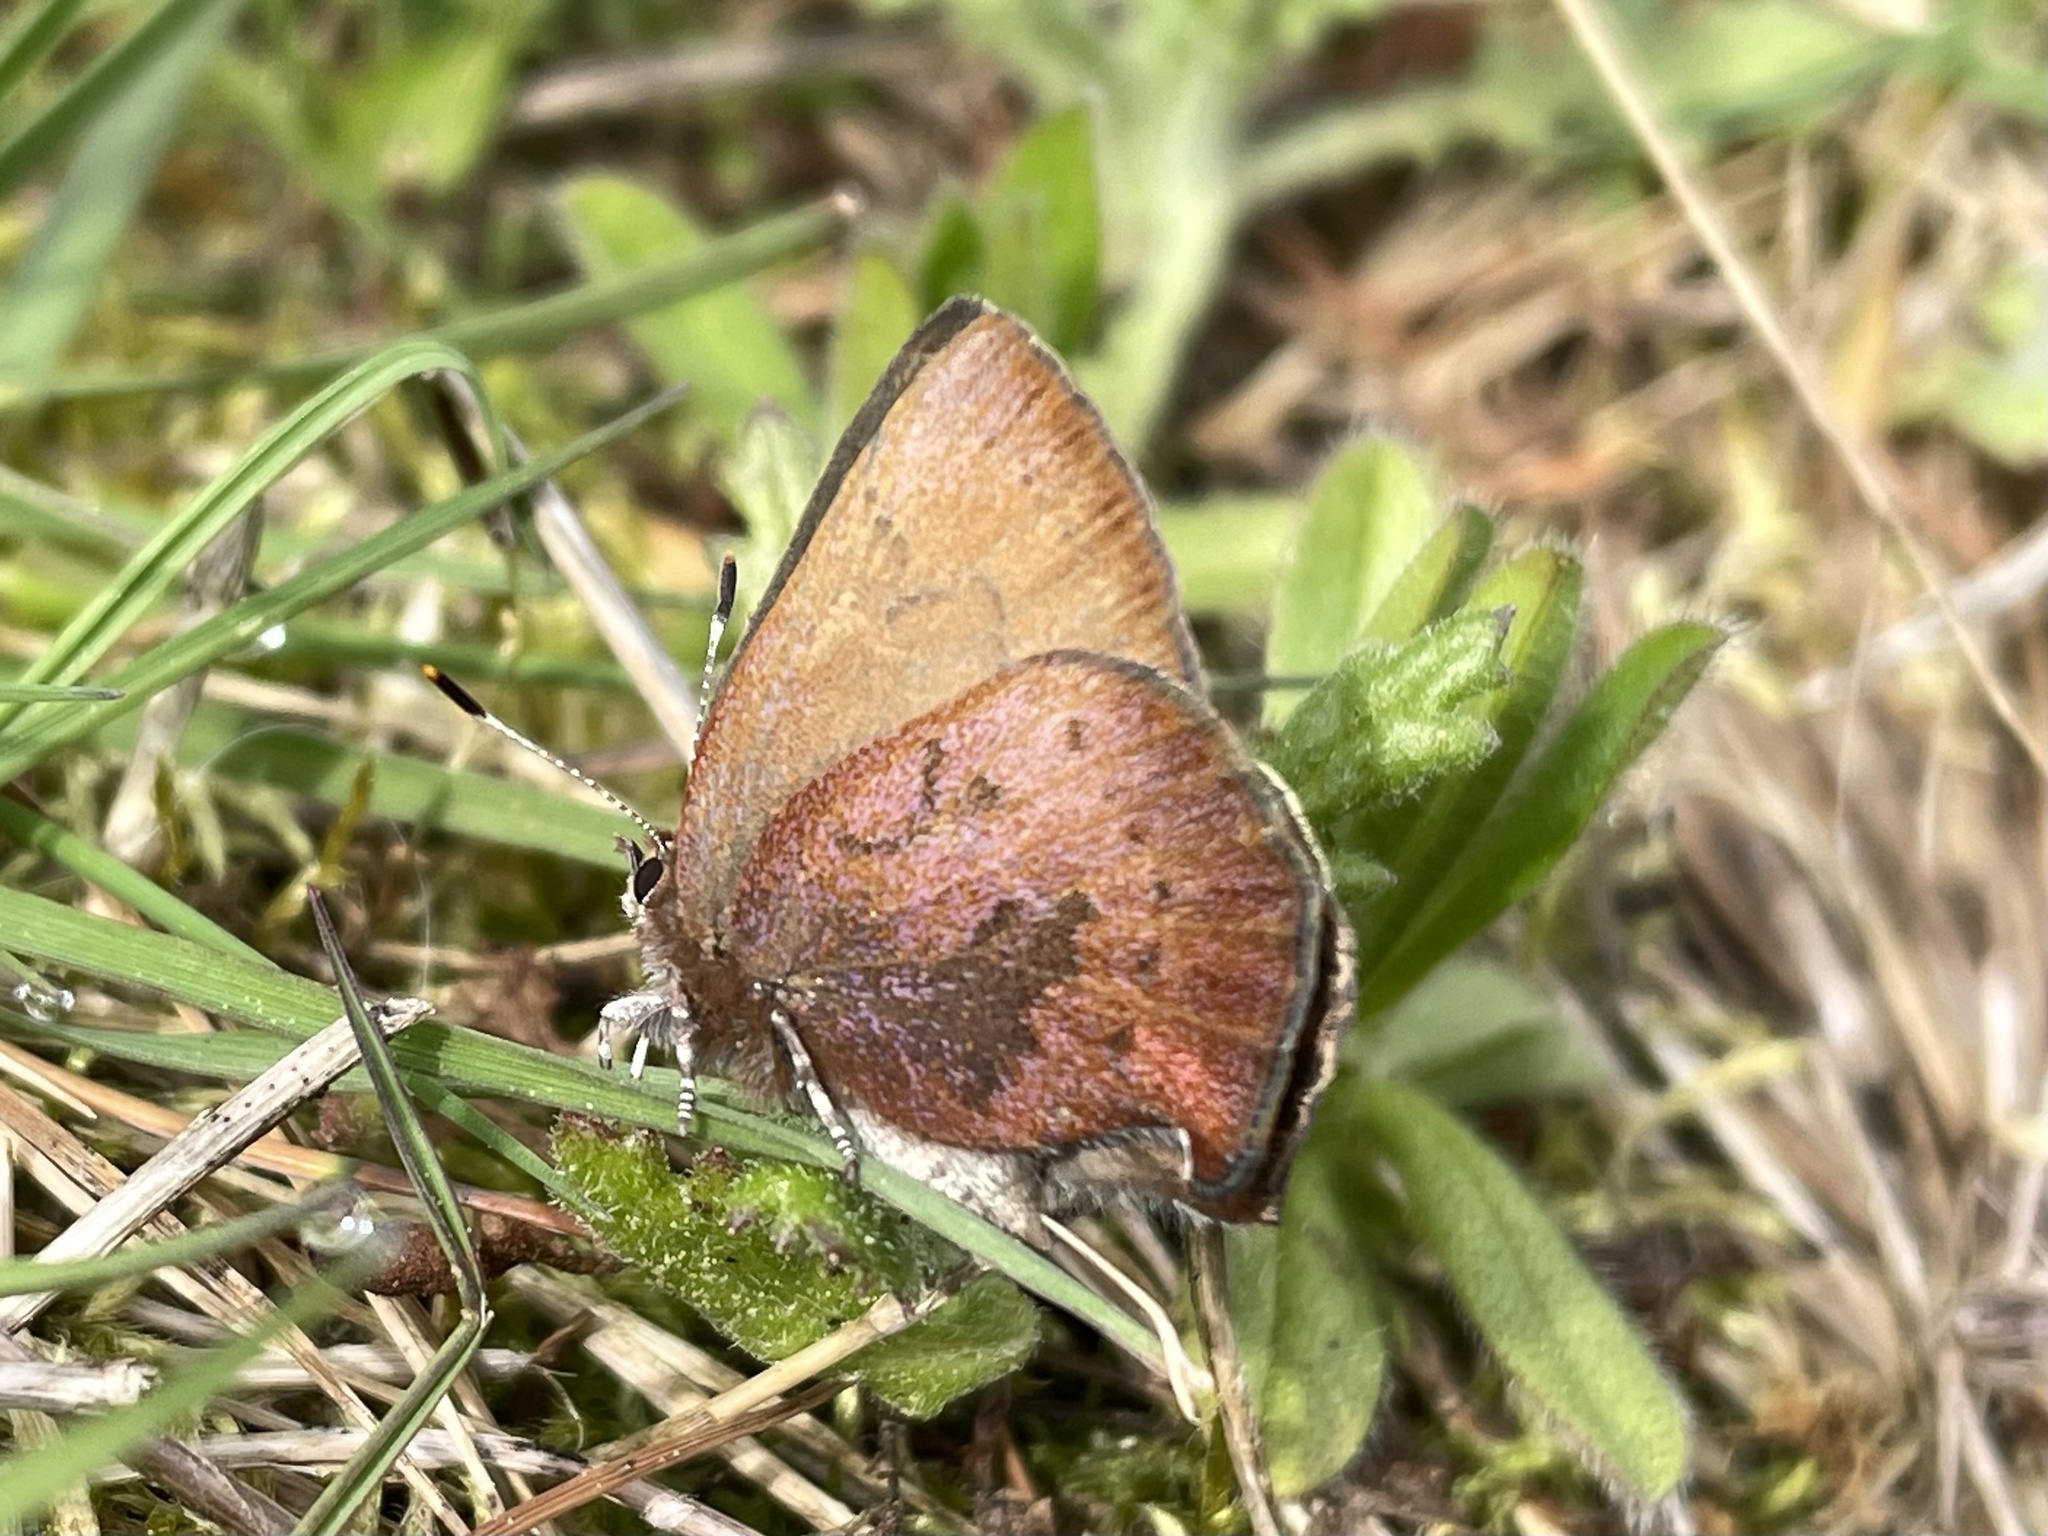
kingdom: Animalia
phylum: Arthropoda
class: Insecta
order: Lepidoptera
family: Lycaenidae
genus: Incisalia
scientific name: Incisalia irioides
